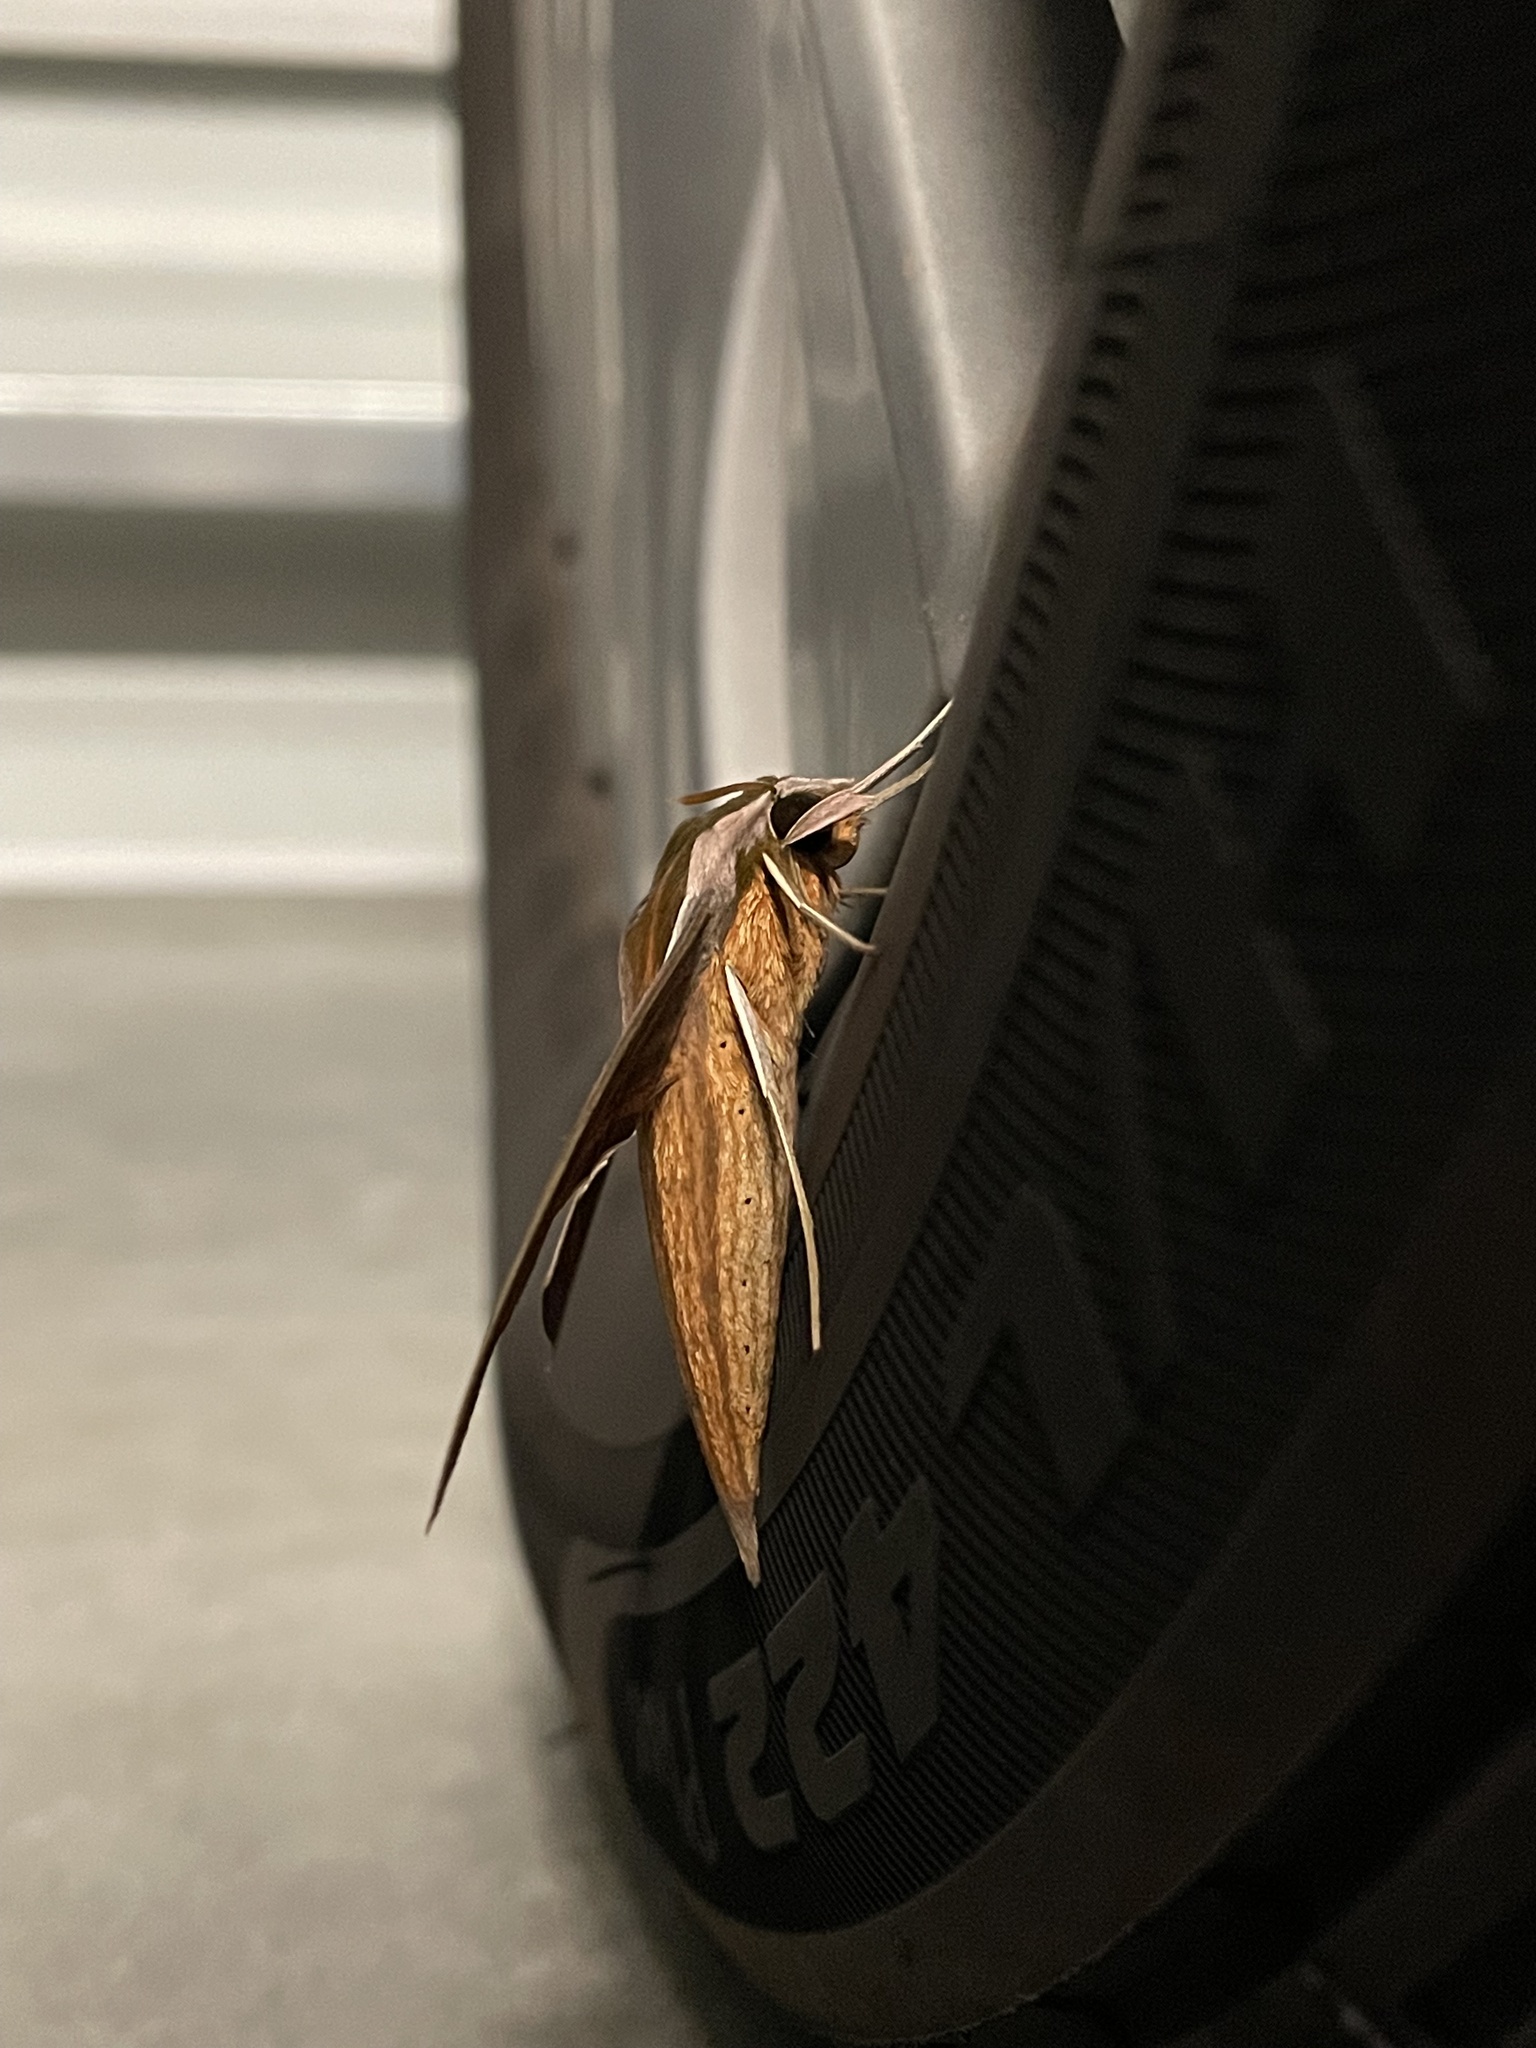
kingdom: Animalia
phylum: Arthropoda
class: Insecta
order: Lepidoptera
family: Sphingidae
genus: Xylophanes
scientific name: Xylophanes tersa
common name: Tersa sphinx
